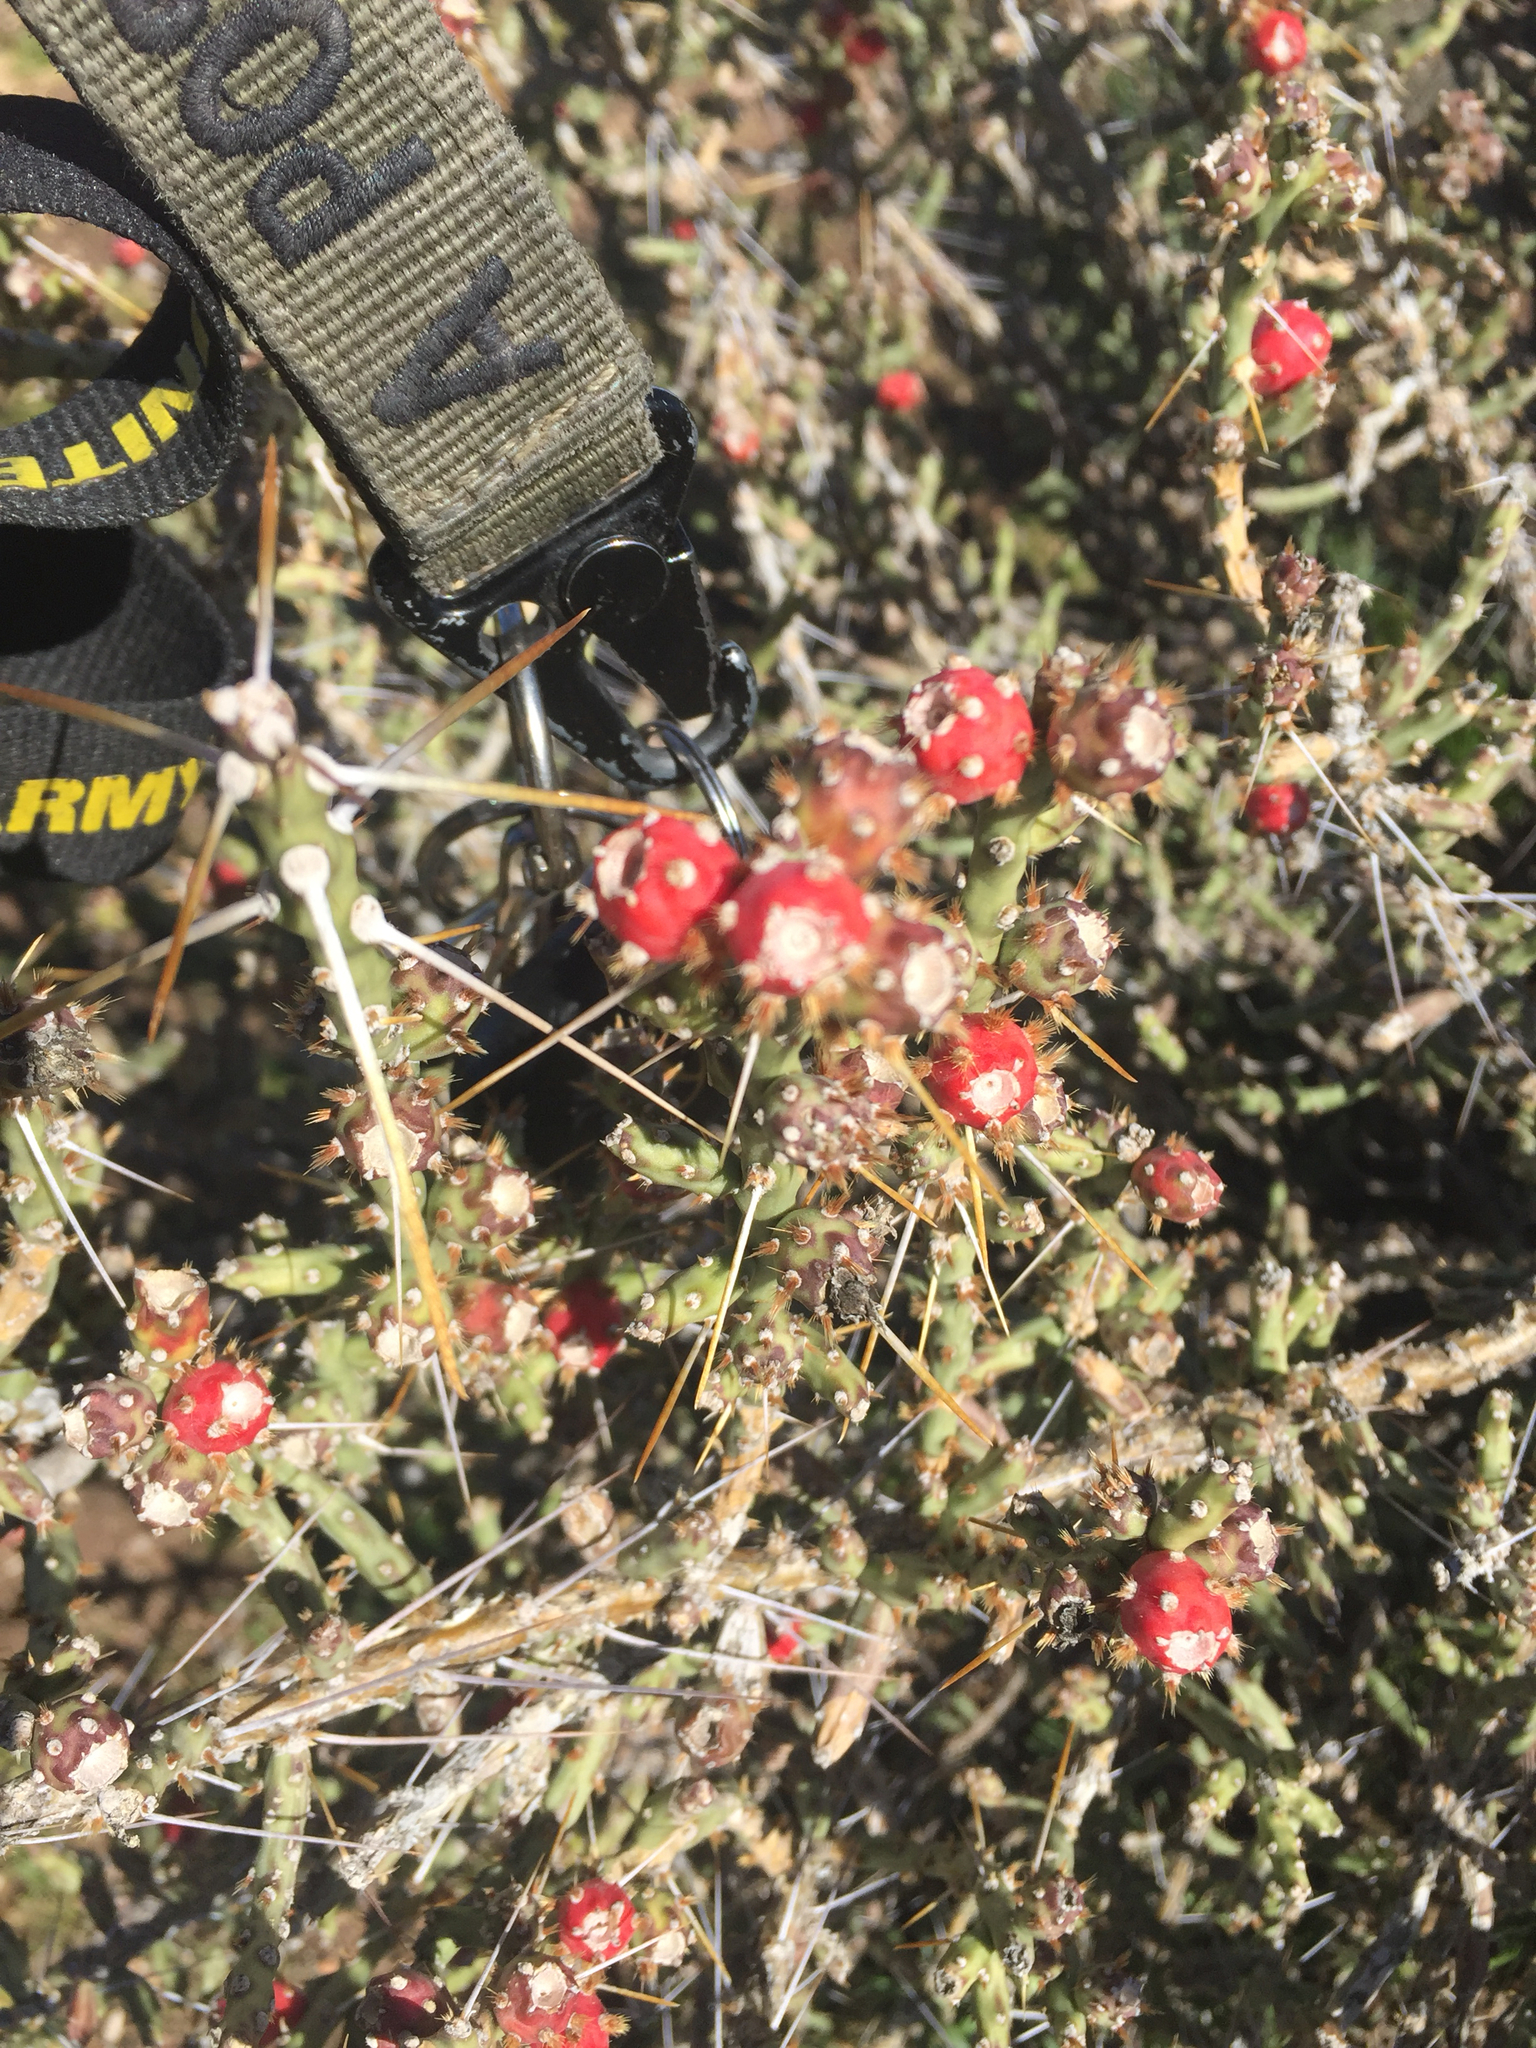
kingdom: Plantae
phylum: Tracheophyta
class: Magnoliopsida
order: Caryophyllales
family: Cactaceae
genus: Cylindropuntia
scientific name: Cylindropuntia leptocaulis
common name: Christmas cactus
